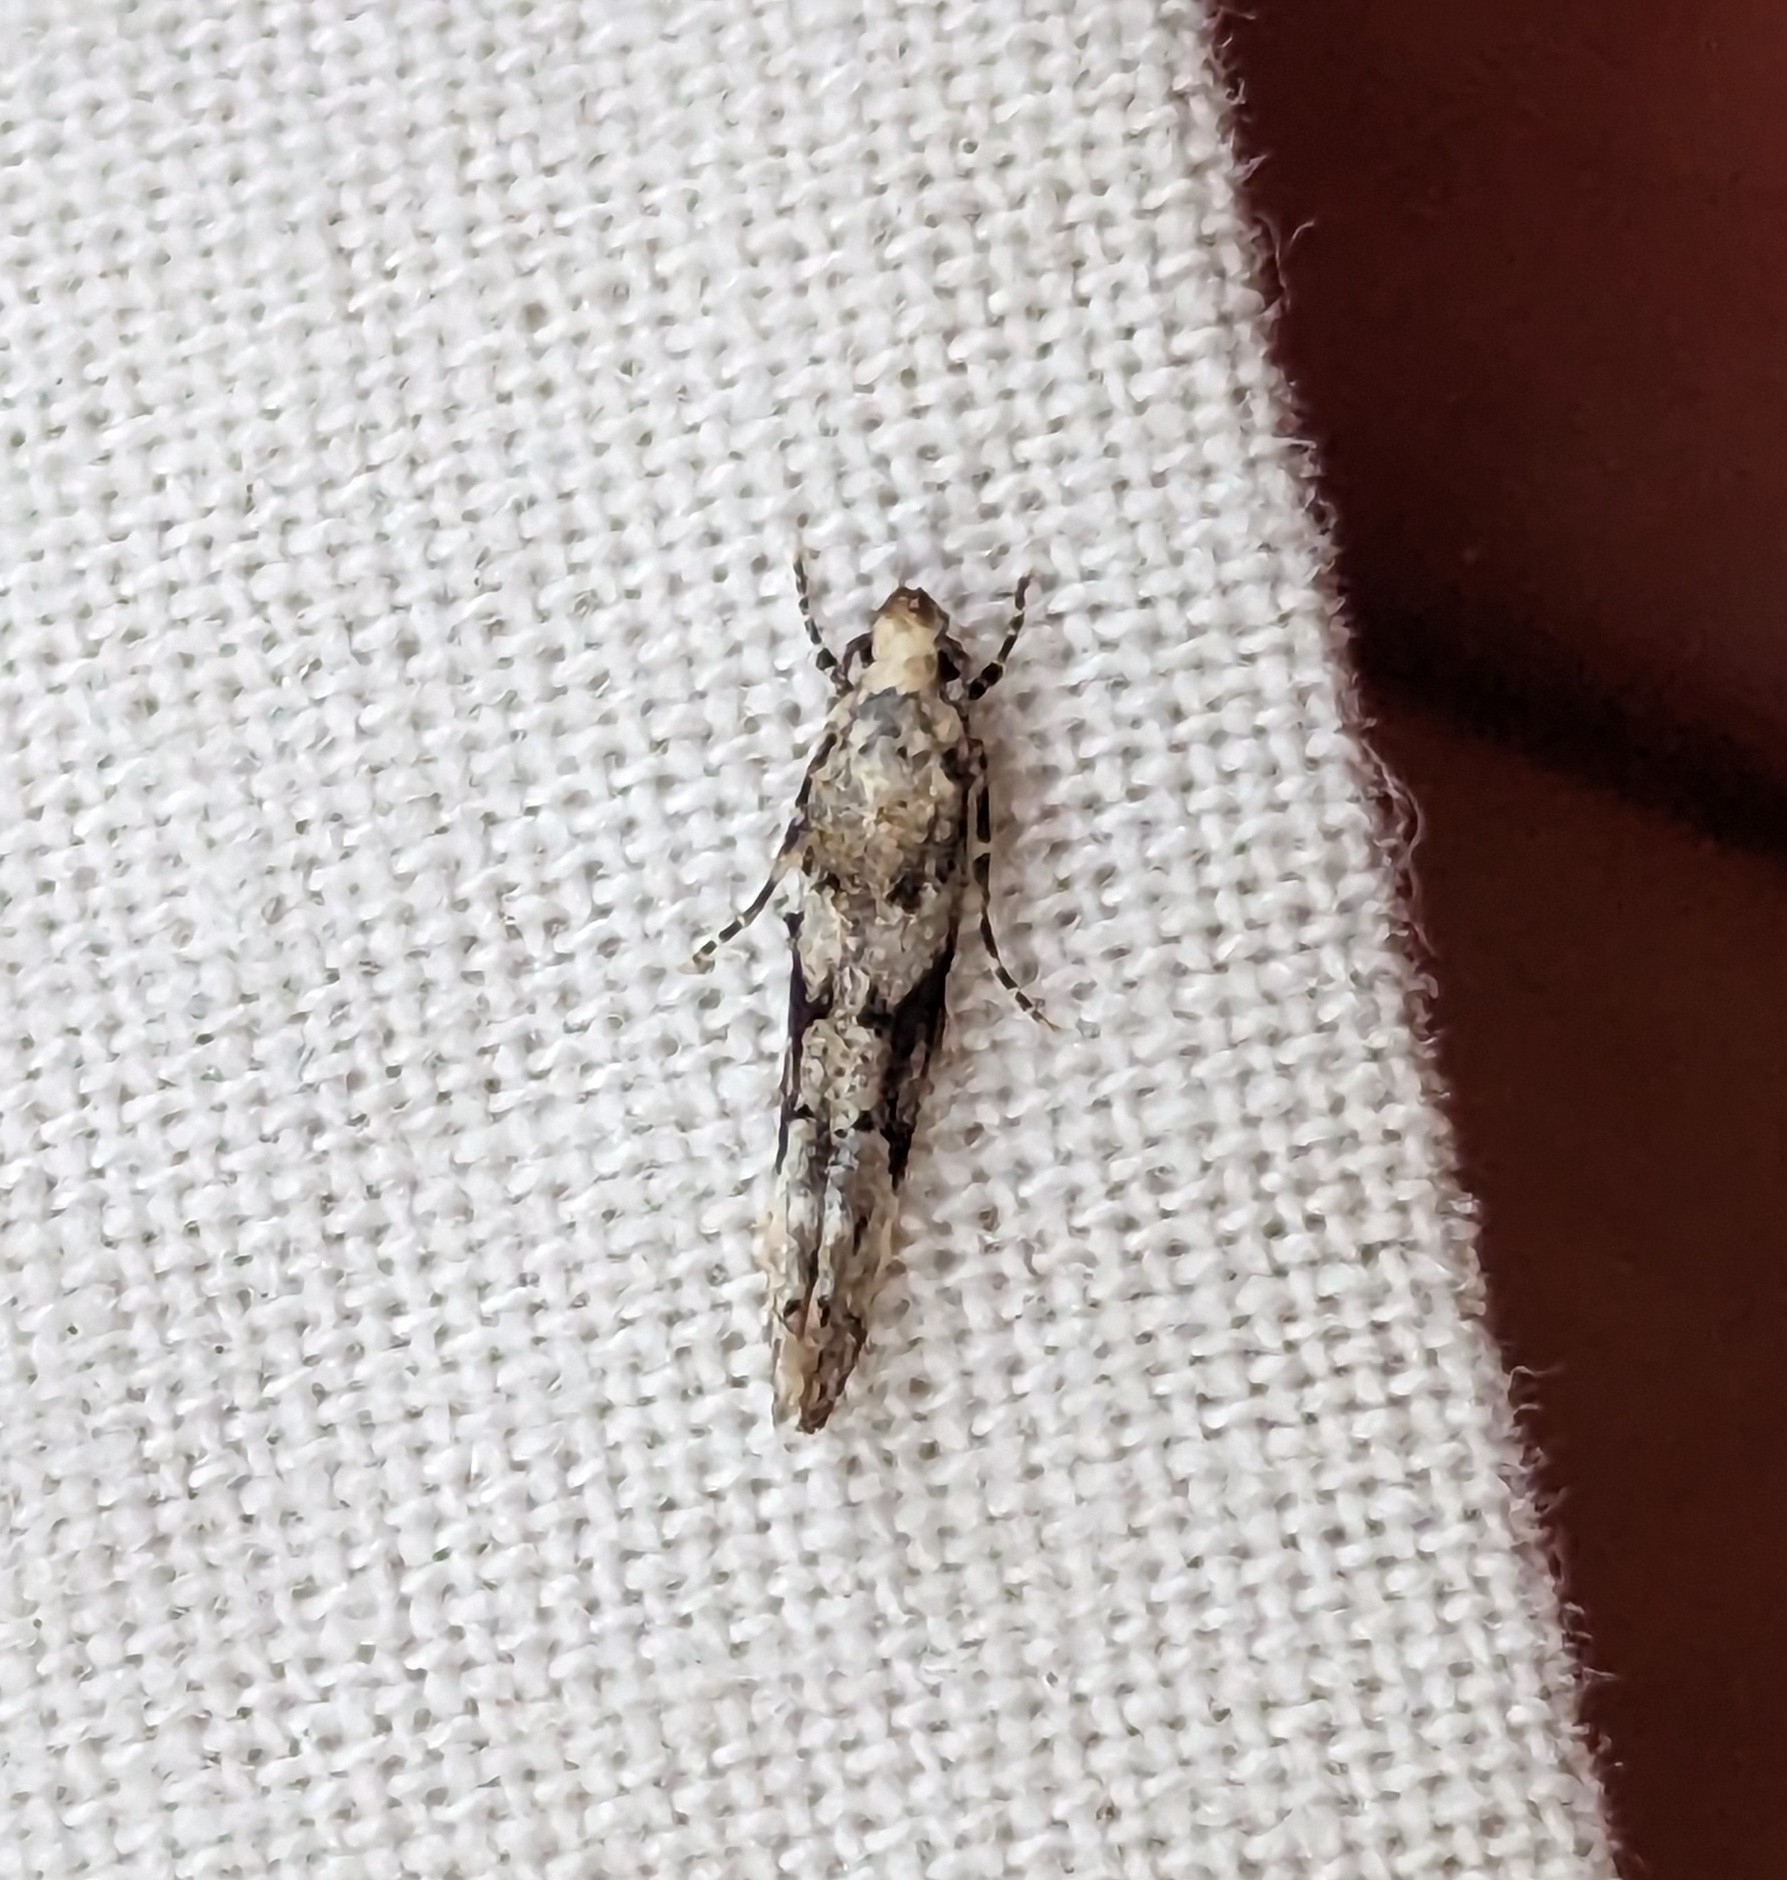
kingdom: Animalia
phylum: Arthropoda
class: Insecta
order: Lepidoptera
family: Gelechiidae
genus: Coleotechnites
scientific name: Coleotechnites atrupictella
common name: Spruce micromoth
